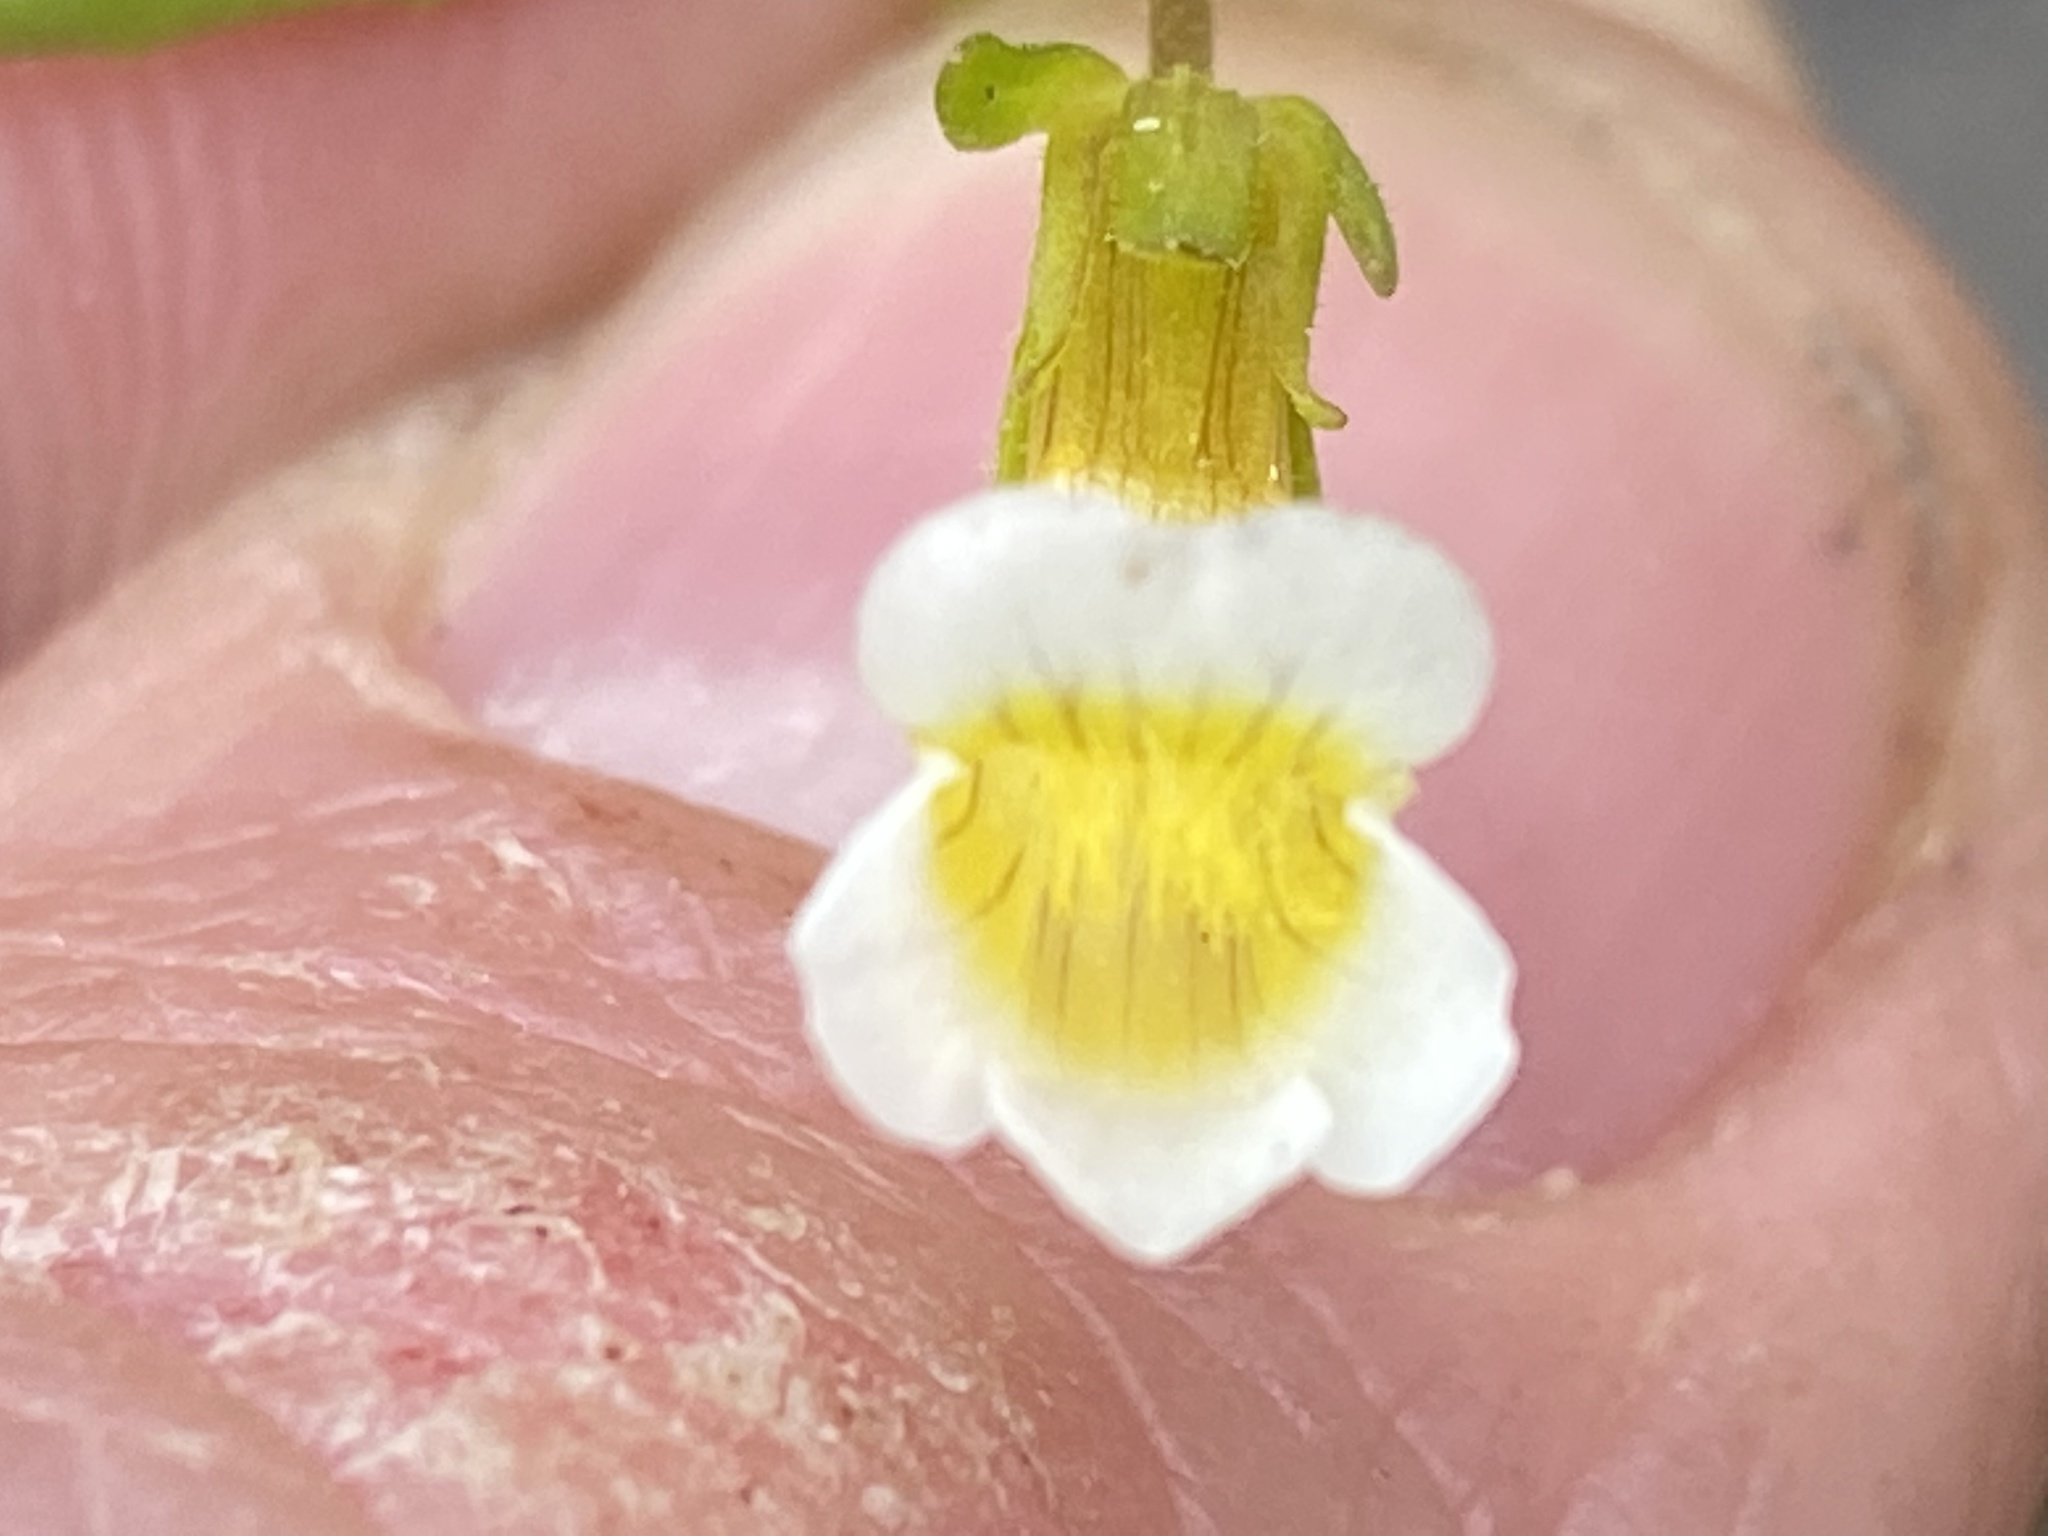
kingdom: Plantae
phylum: Tracheophyta
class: Magnoliopsida
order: Lamiales
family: Plantaginaceae
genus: Gratiola
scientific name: Gratiola quartermaniae
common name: Quarterman's hedge-hyssop
